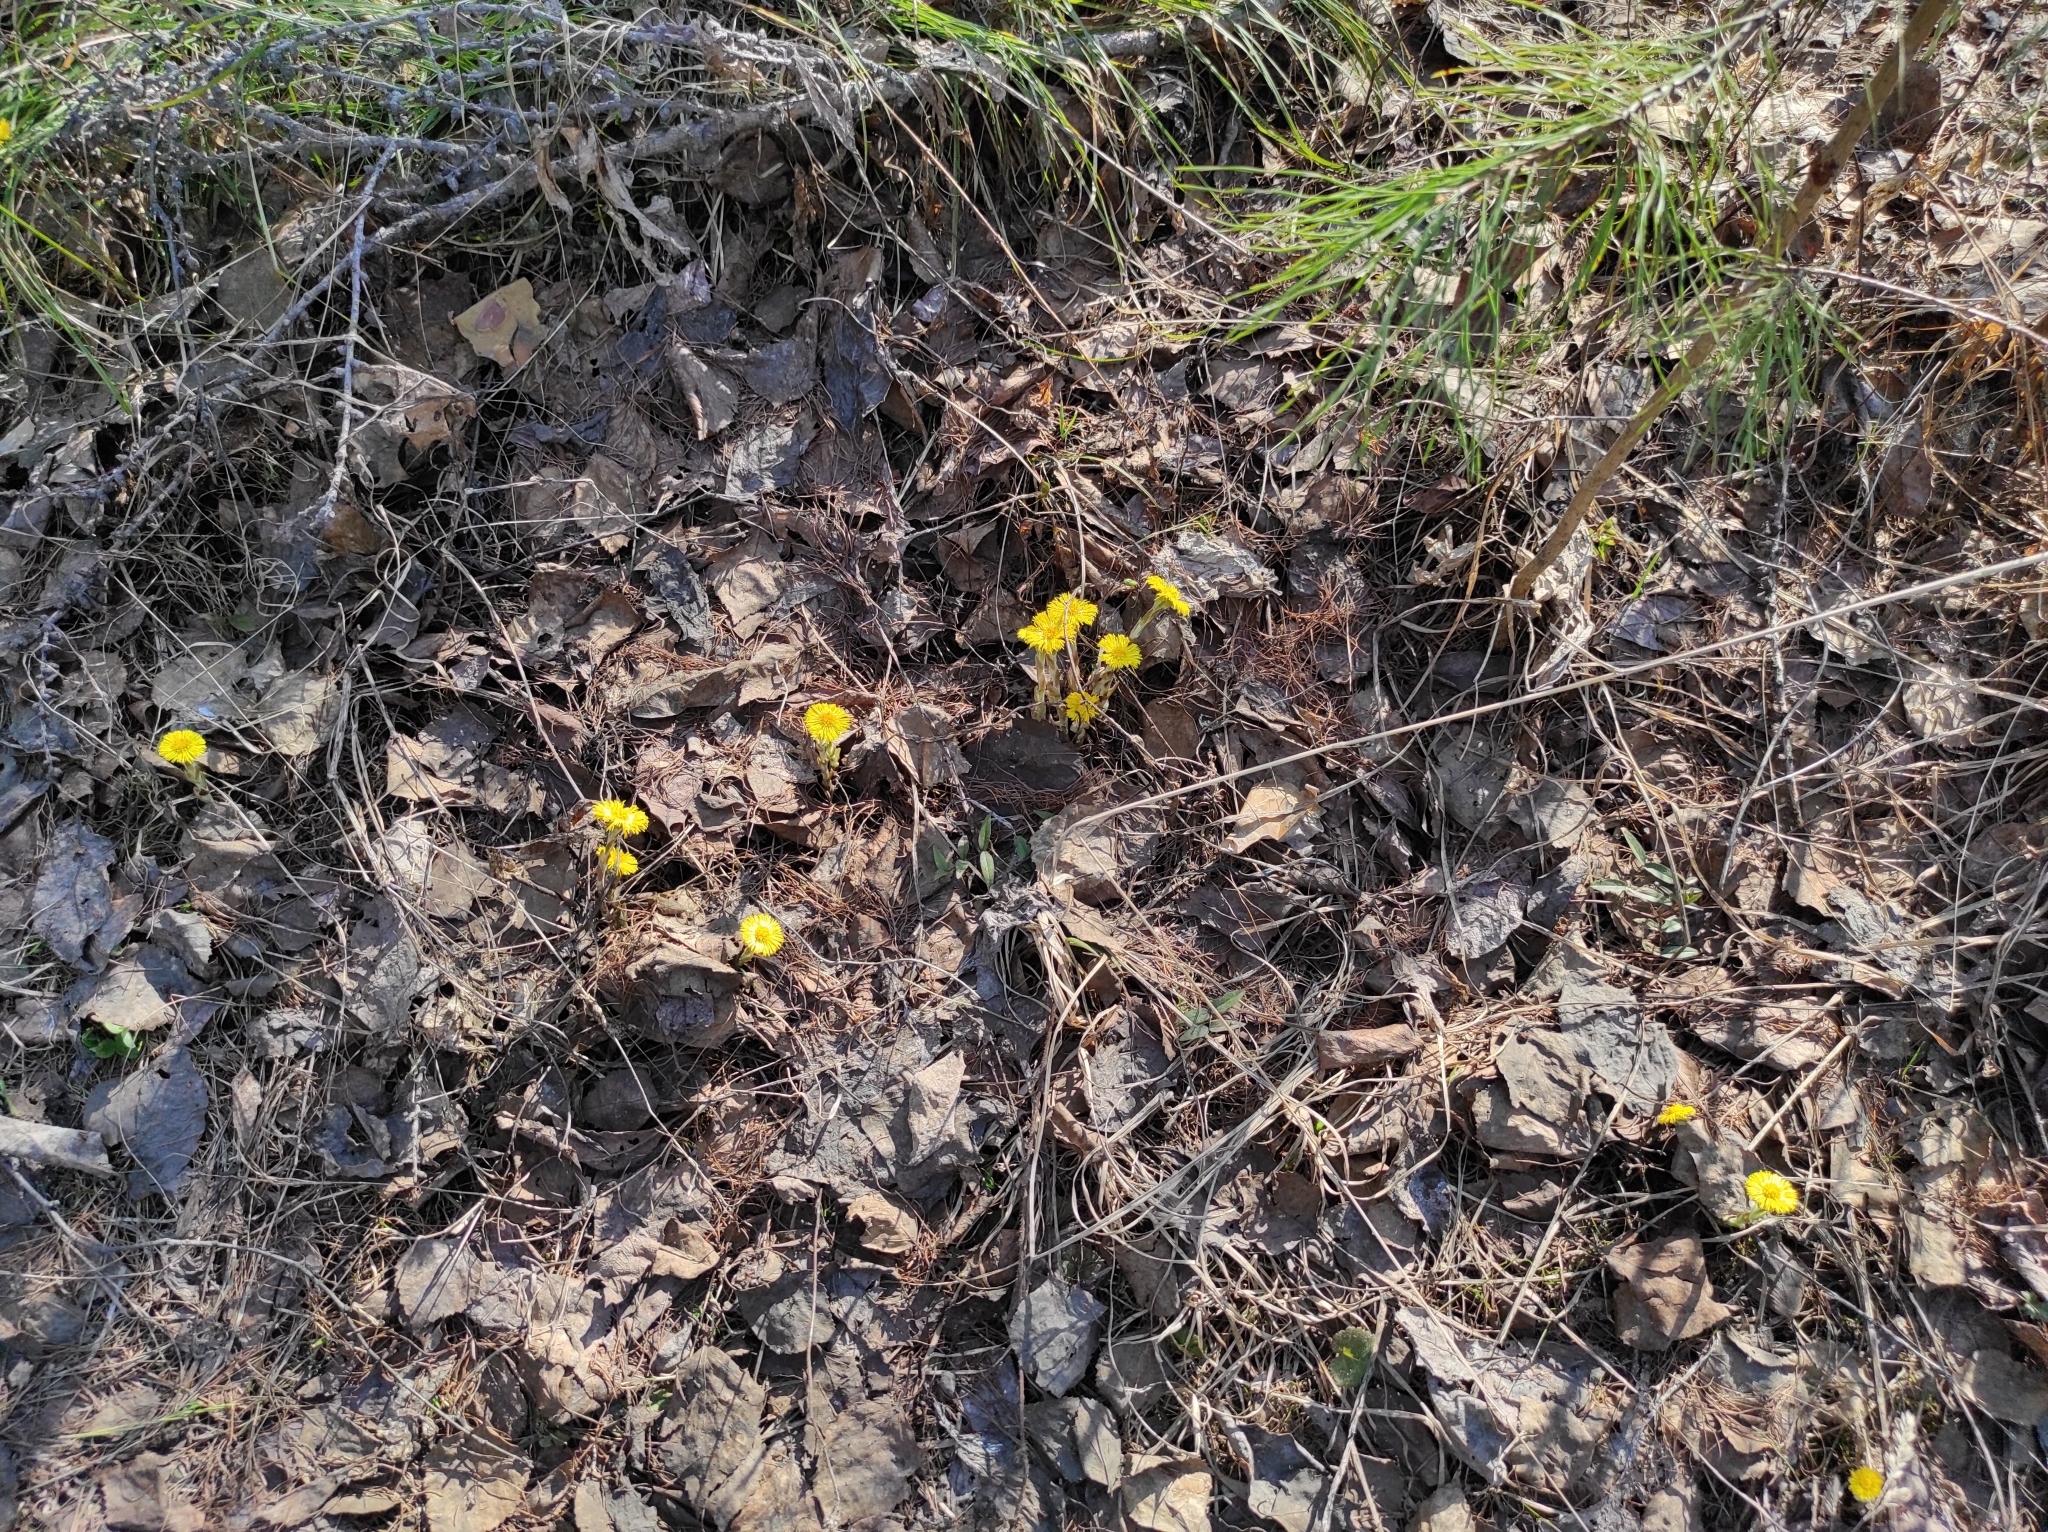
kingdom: Plantae
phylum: Tracheophyta
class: Magnoliopsida
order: Asterales
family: Asteraceae
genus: Tussilago
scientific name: Tussilago farfara
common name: Coltsfoot
